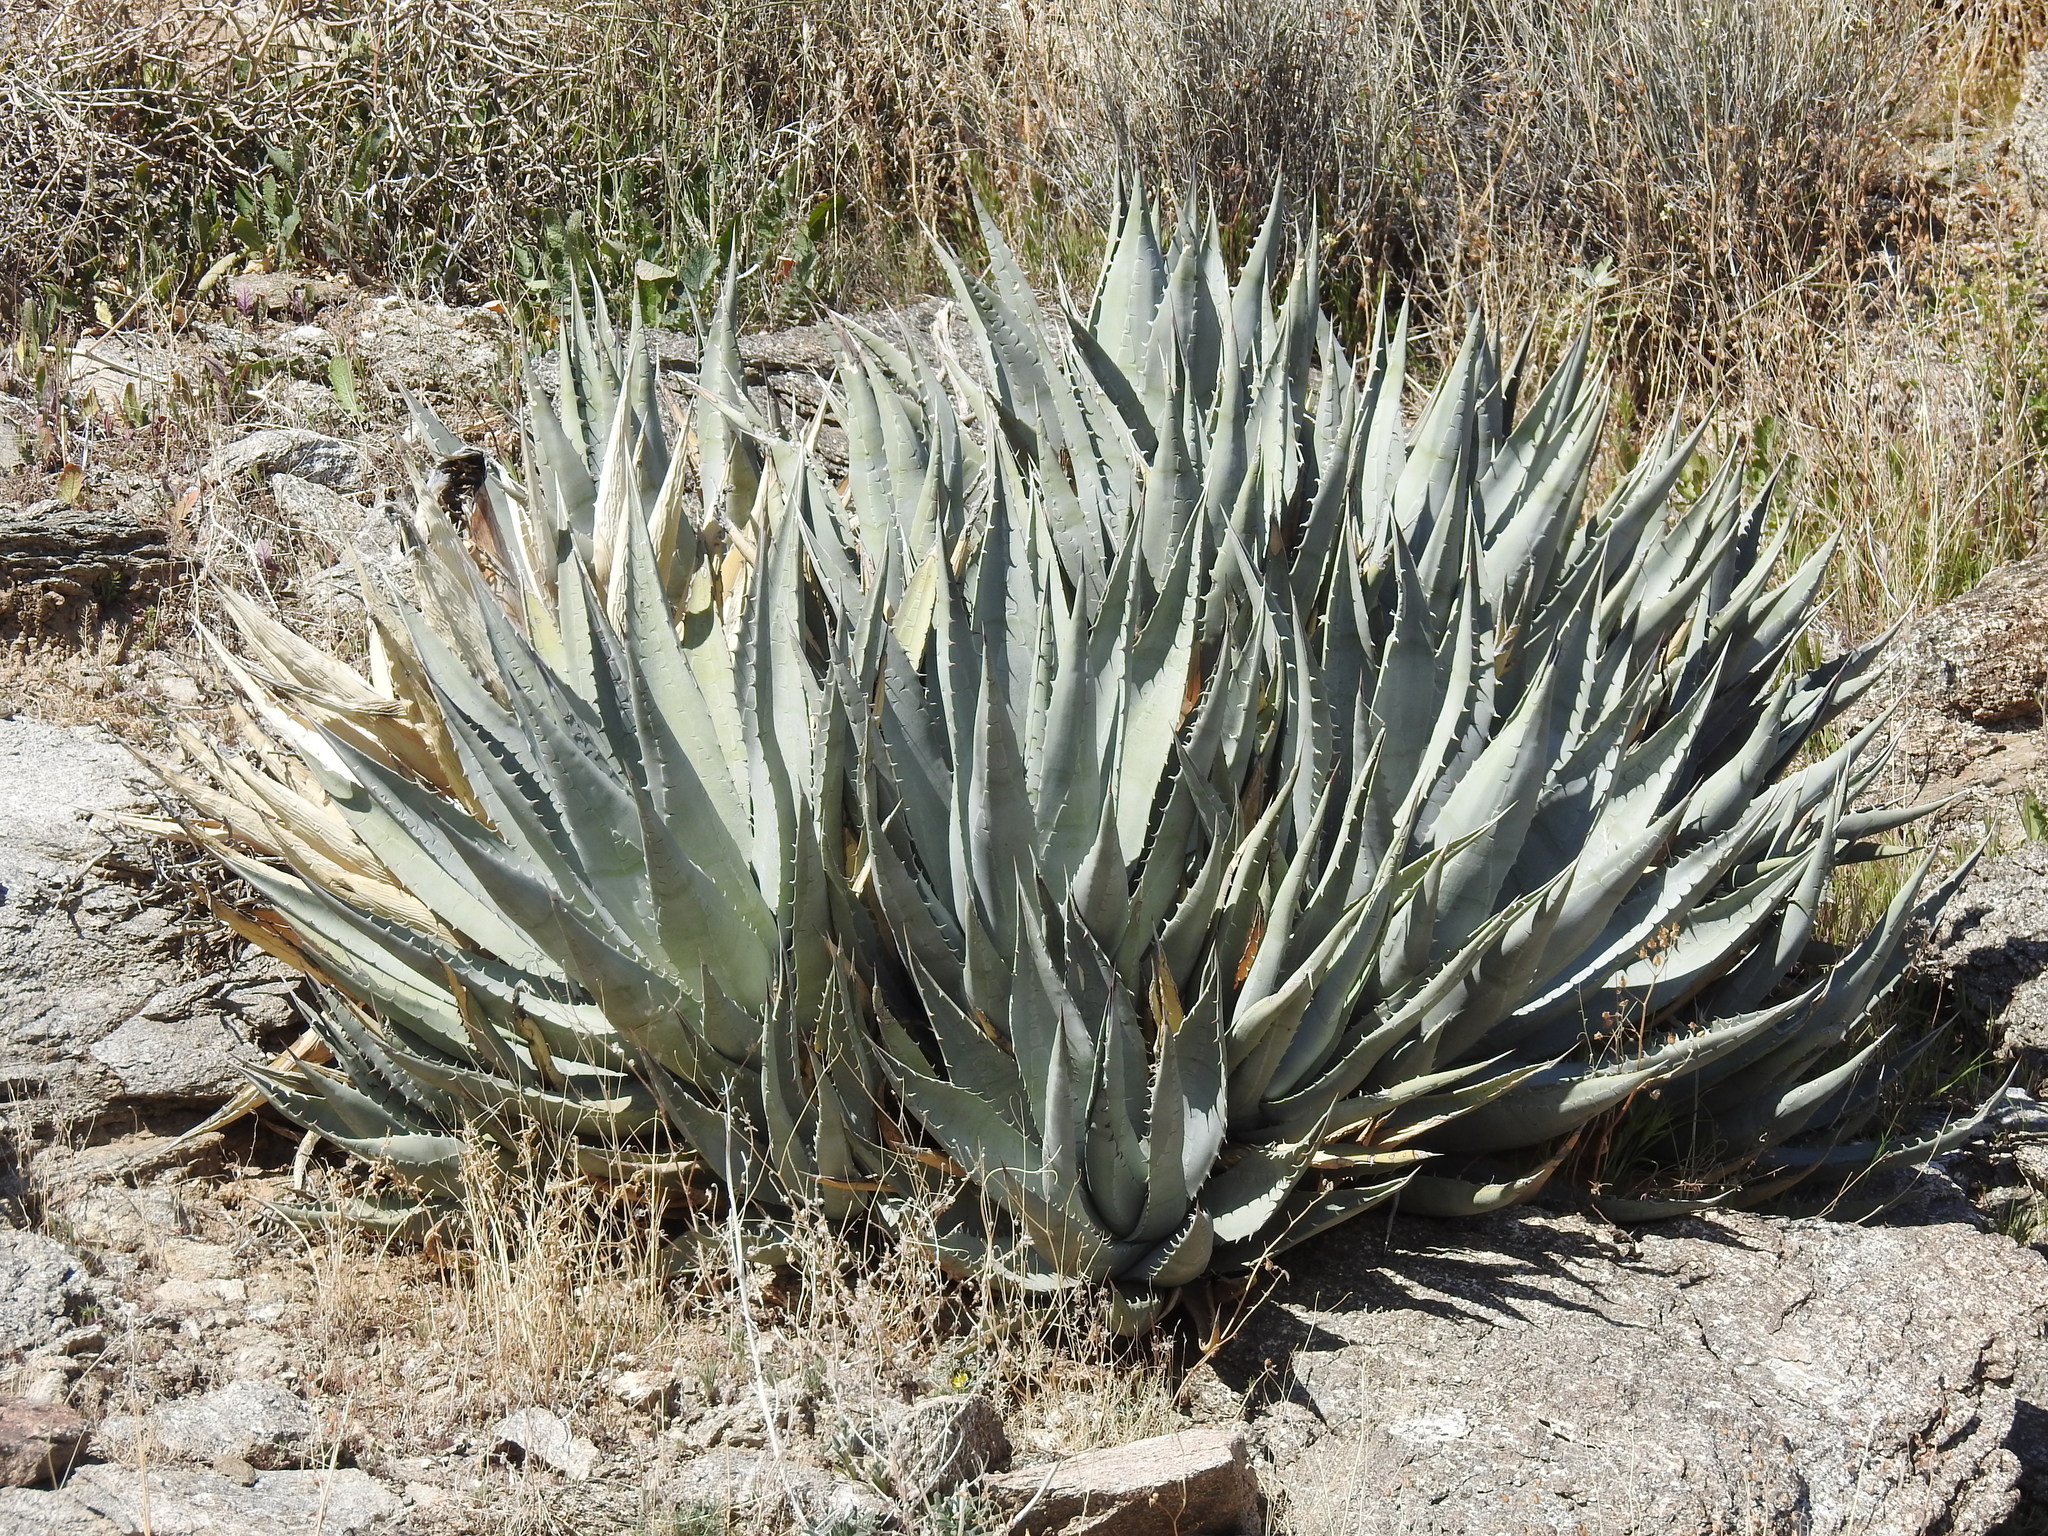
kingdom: Plantae
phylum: Tracheophyta
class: Liliopsida
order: Asparagales
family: Asparagaceae
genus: Agave
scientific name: Agave deserti
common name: Desert agave
